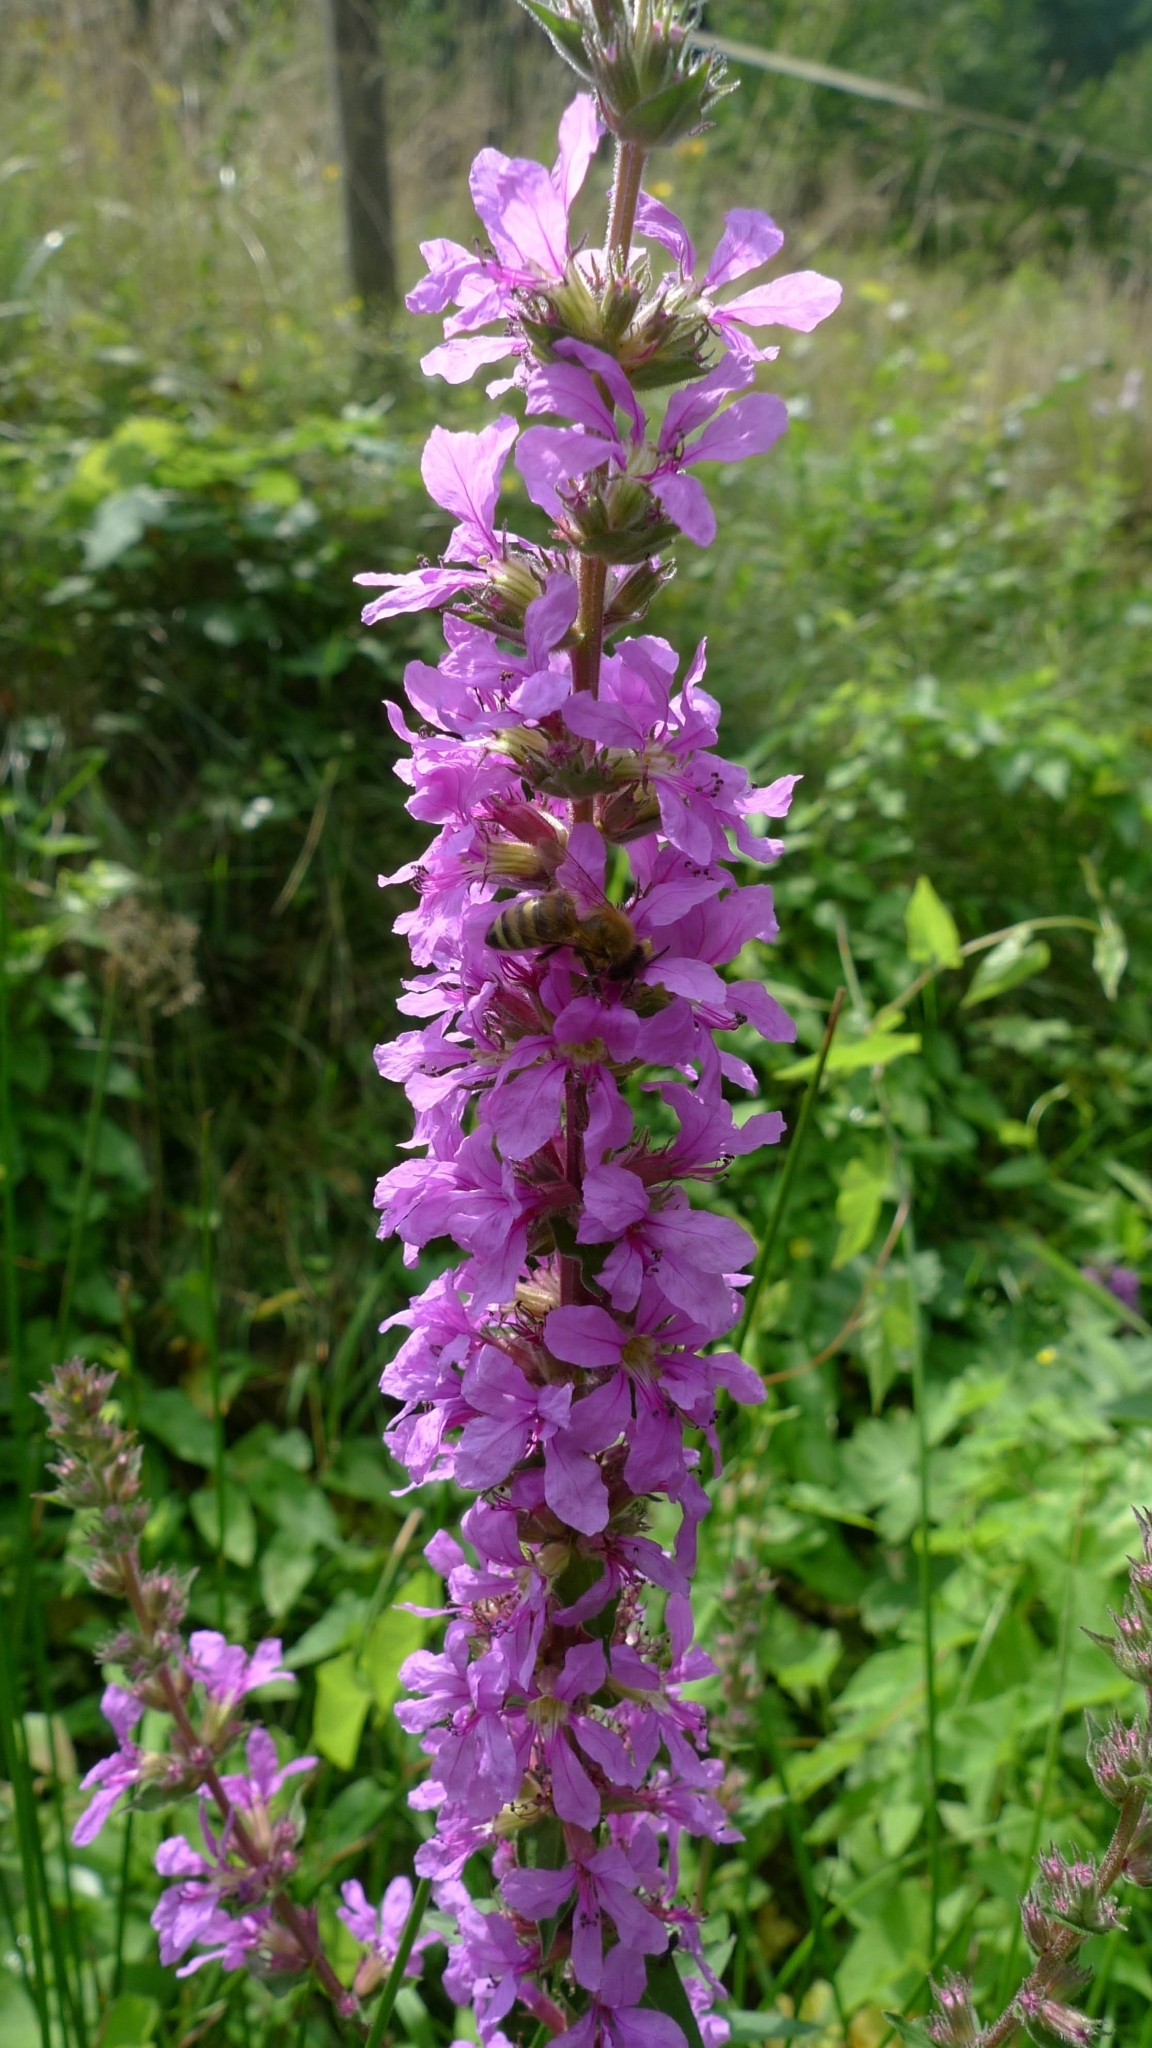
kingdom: Plantae
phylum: Tracheophyta
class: Magnoliopsida
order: Myrtales
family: Lythraceae
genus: Lythrum
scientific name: Lythrum salicaria
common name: Purple loosestrife
